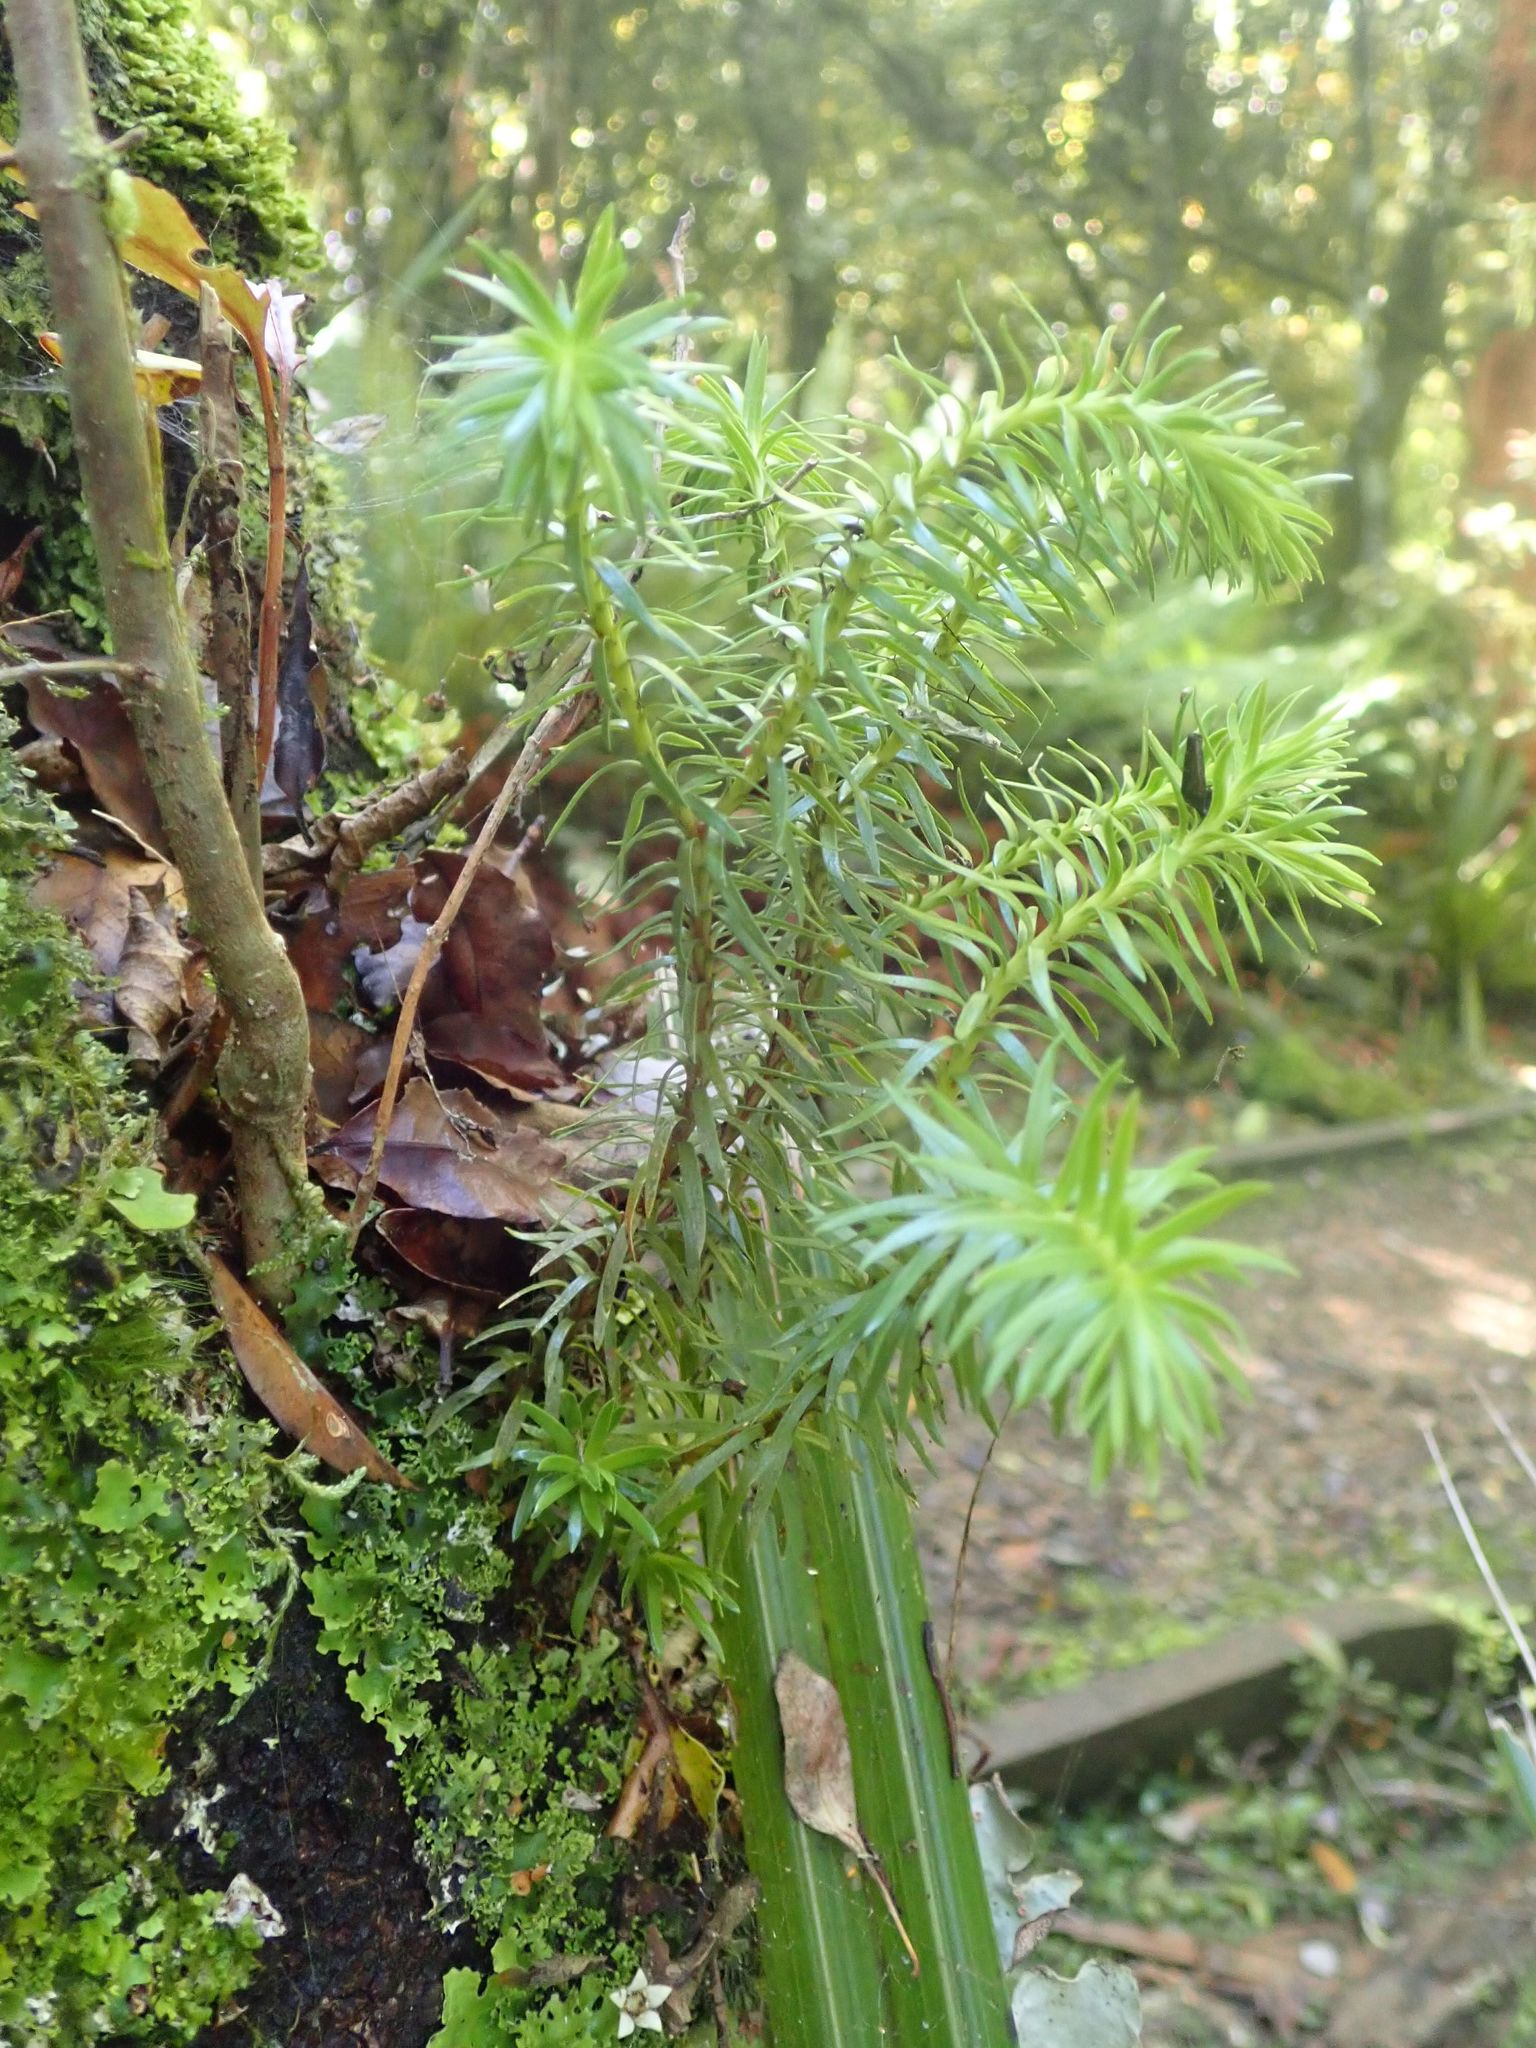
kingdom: Plantae
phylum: Tracheophyta
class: Lycopodiopsida
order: Lycopodiales
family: Lycopodiaceae
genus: Phlegmariurus
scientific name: Phlegmariurus varius
